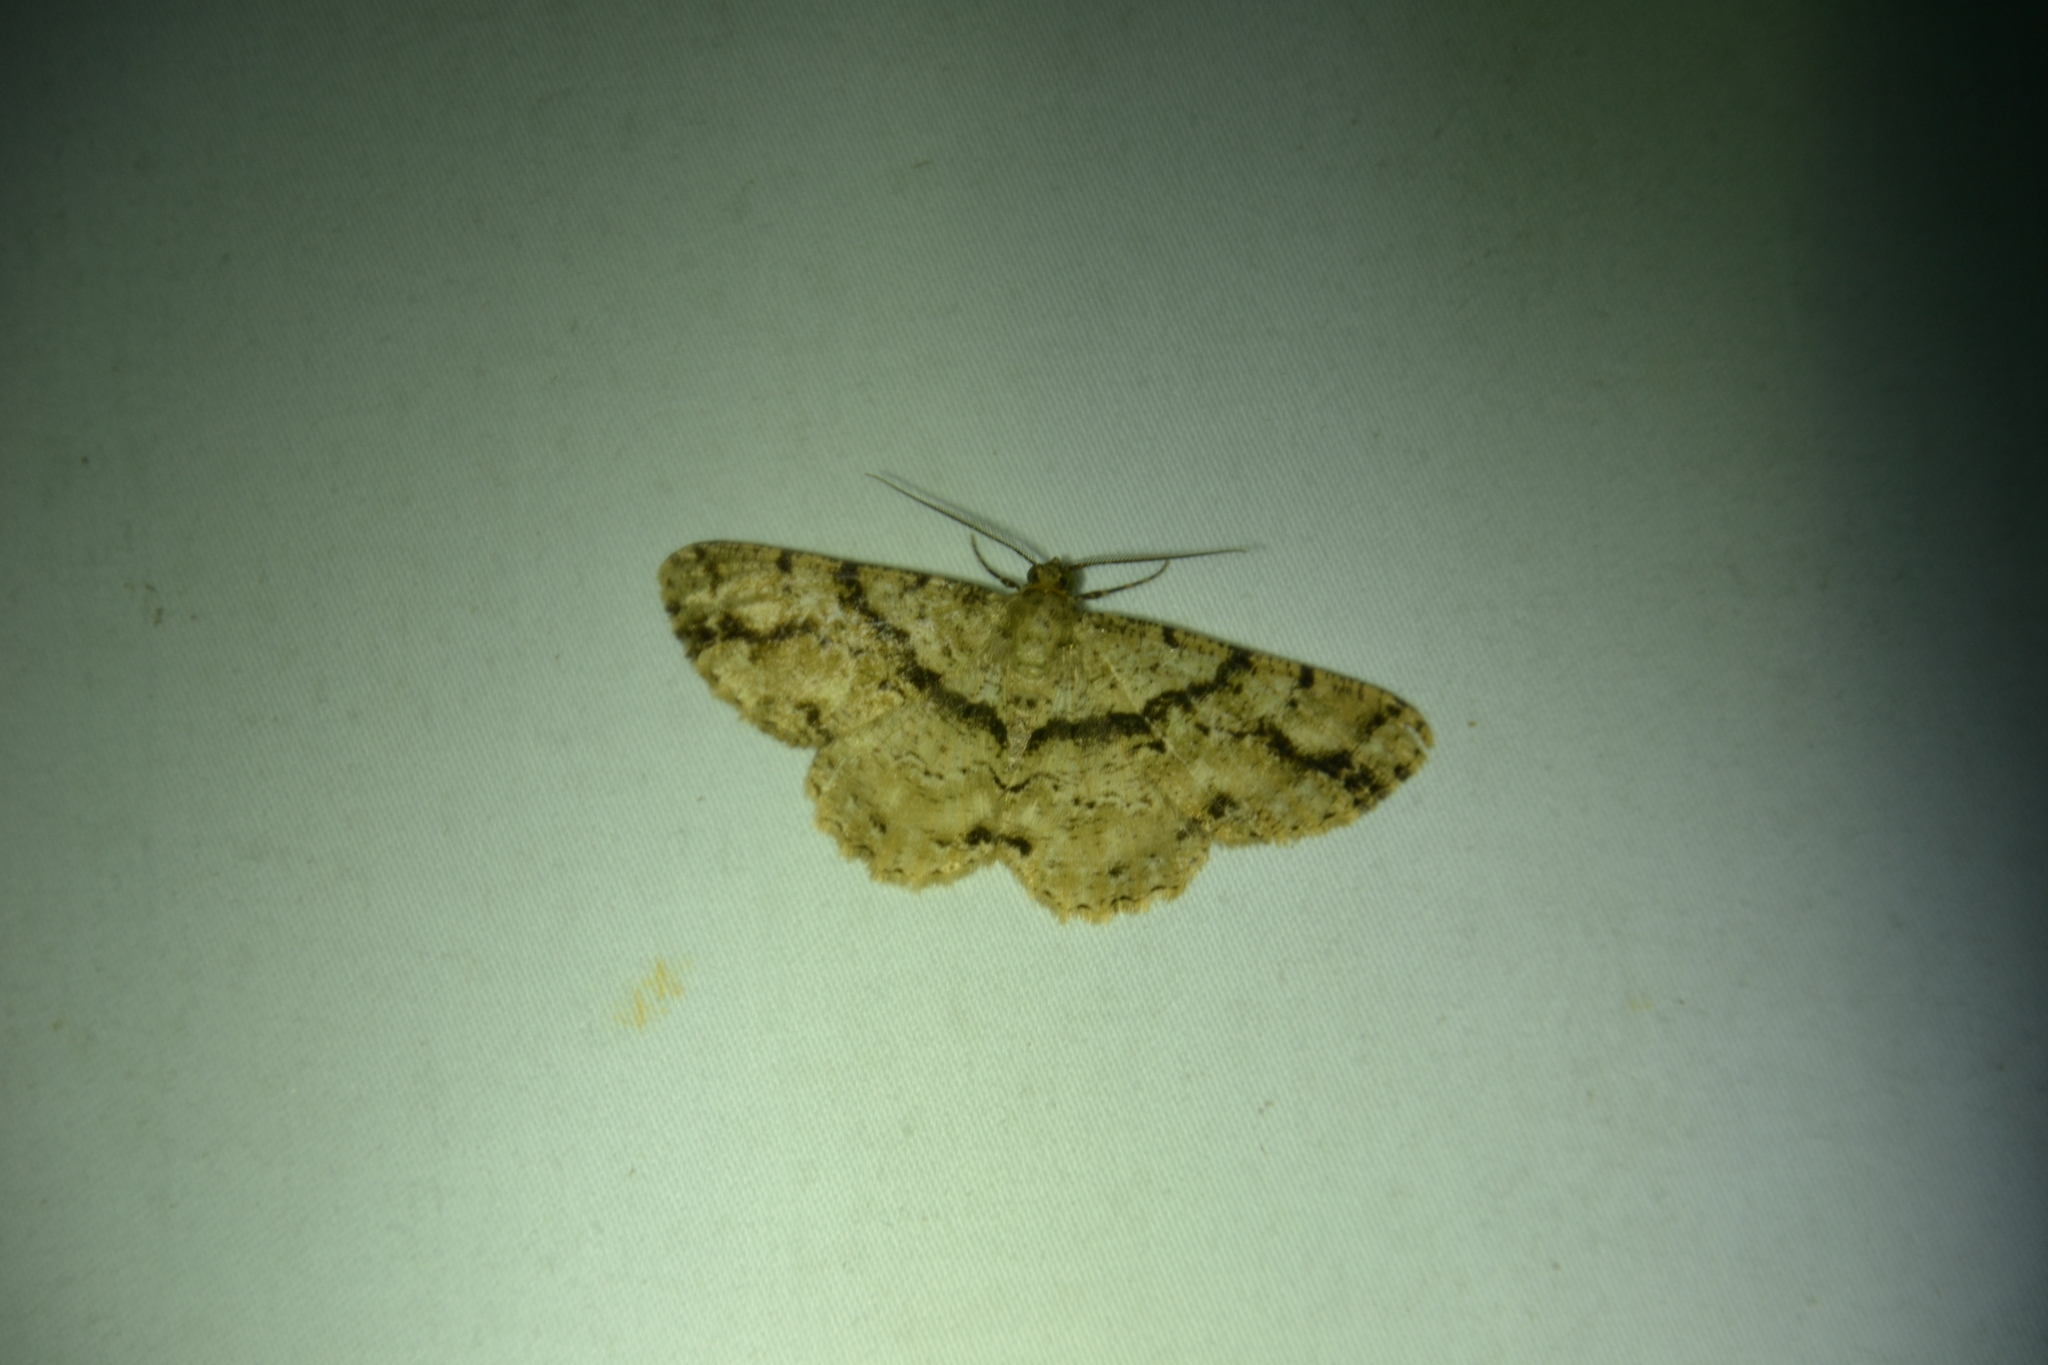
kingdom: Animalia
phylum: Arthropoda
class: Insecta
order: Lepidoptera
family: Geometridae
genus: Melanolophia
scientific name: Melanolophia conspicua
